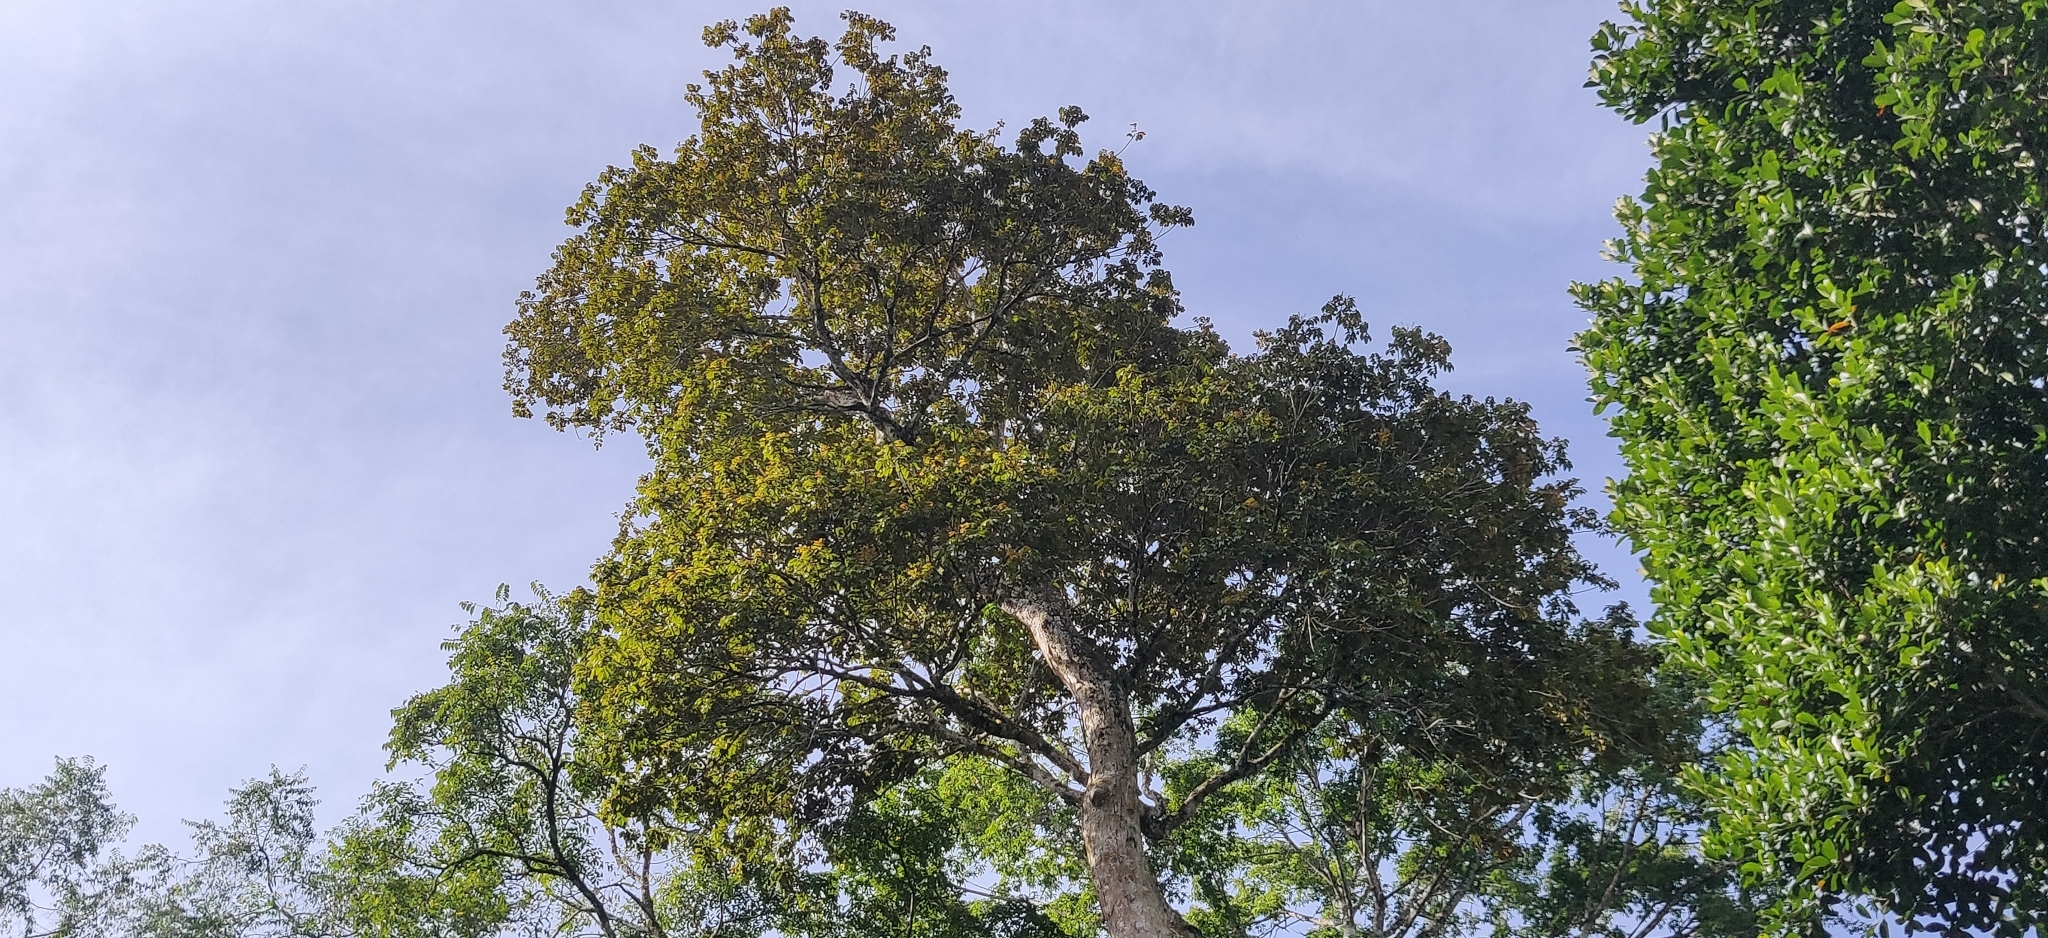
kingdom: Plantae
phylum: Tracheophyta
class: Magnoliopsida
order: Sapindales
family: Burseraceae
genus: Canarium
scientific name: Canarium strictum
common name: Indian white-mahogany
